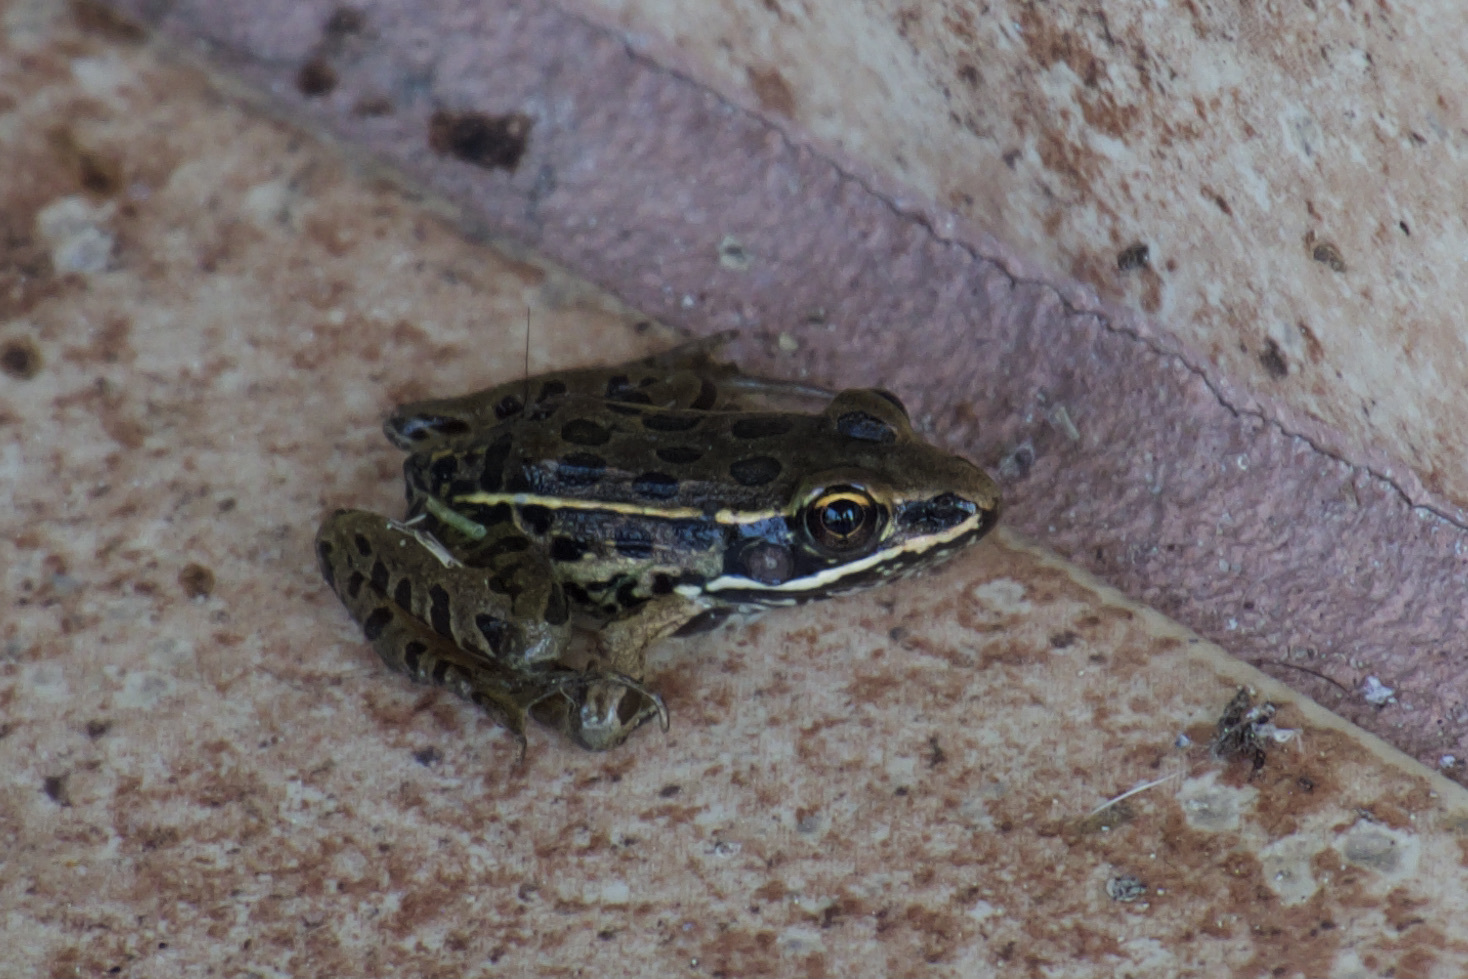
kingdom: Animalia
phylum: Chordata
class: Amphibia
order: Anura
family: Ranidae
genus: Lithobates
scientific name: Lithobates sphenocephalus
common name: Southern leopard frog
